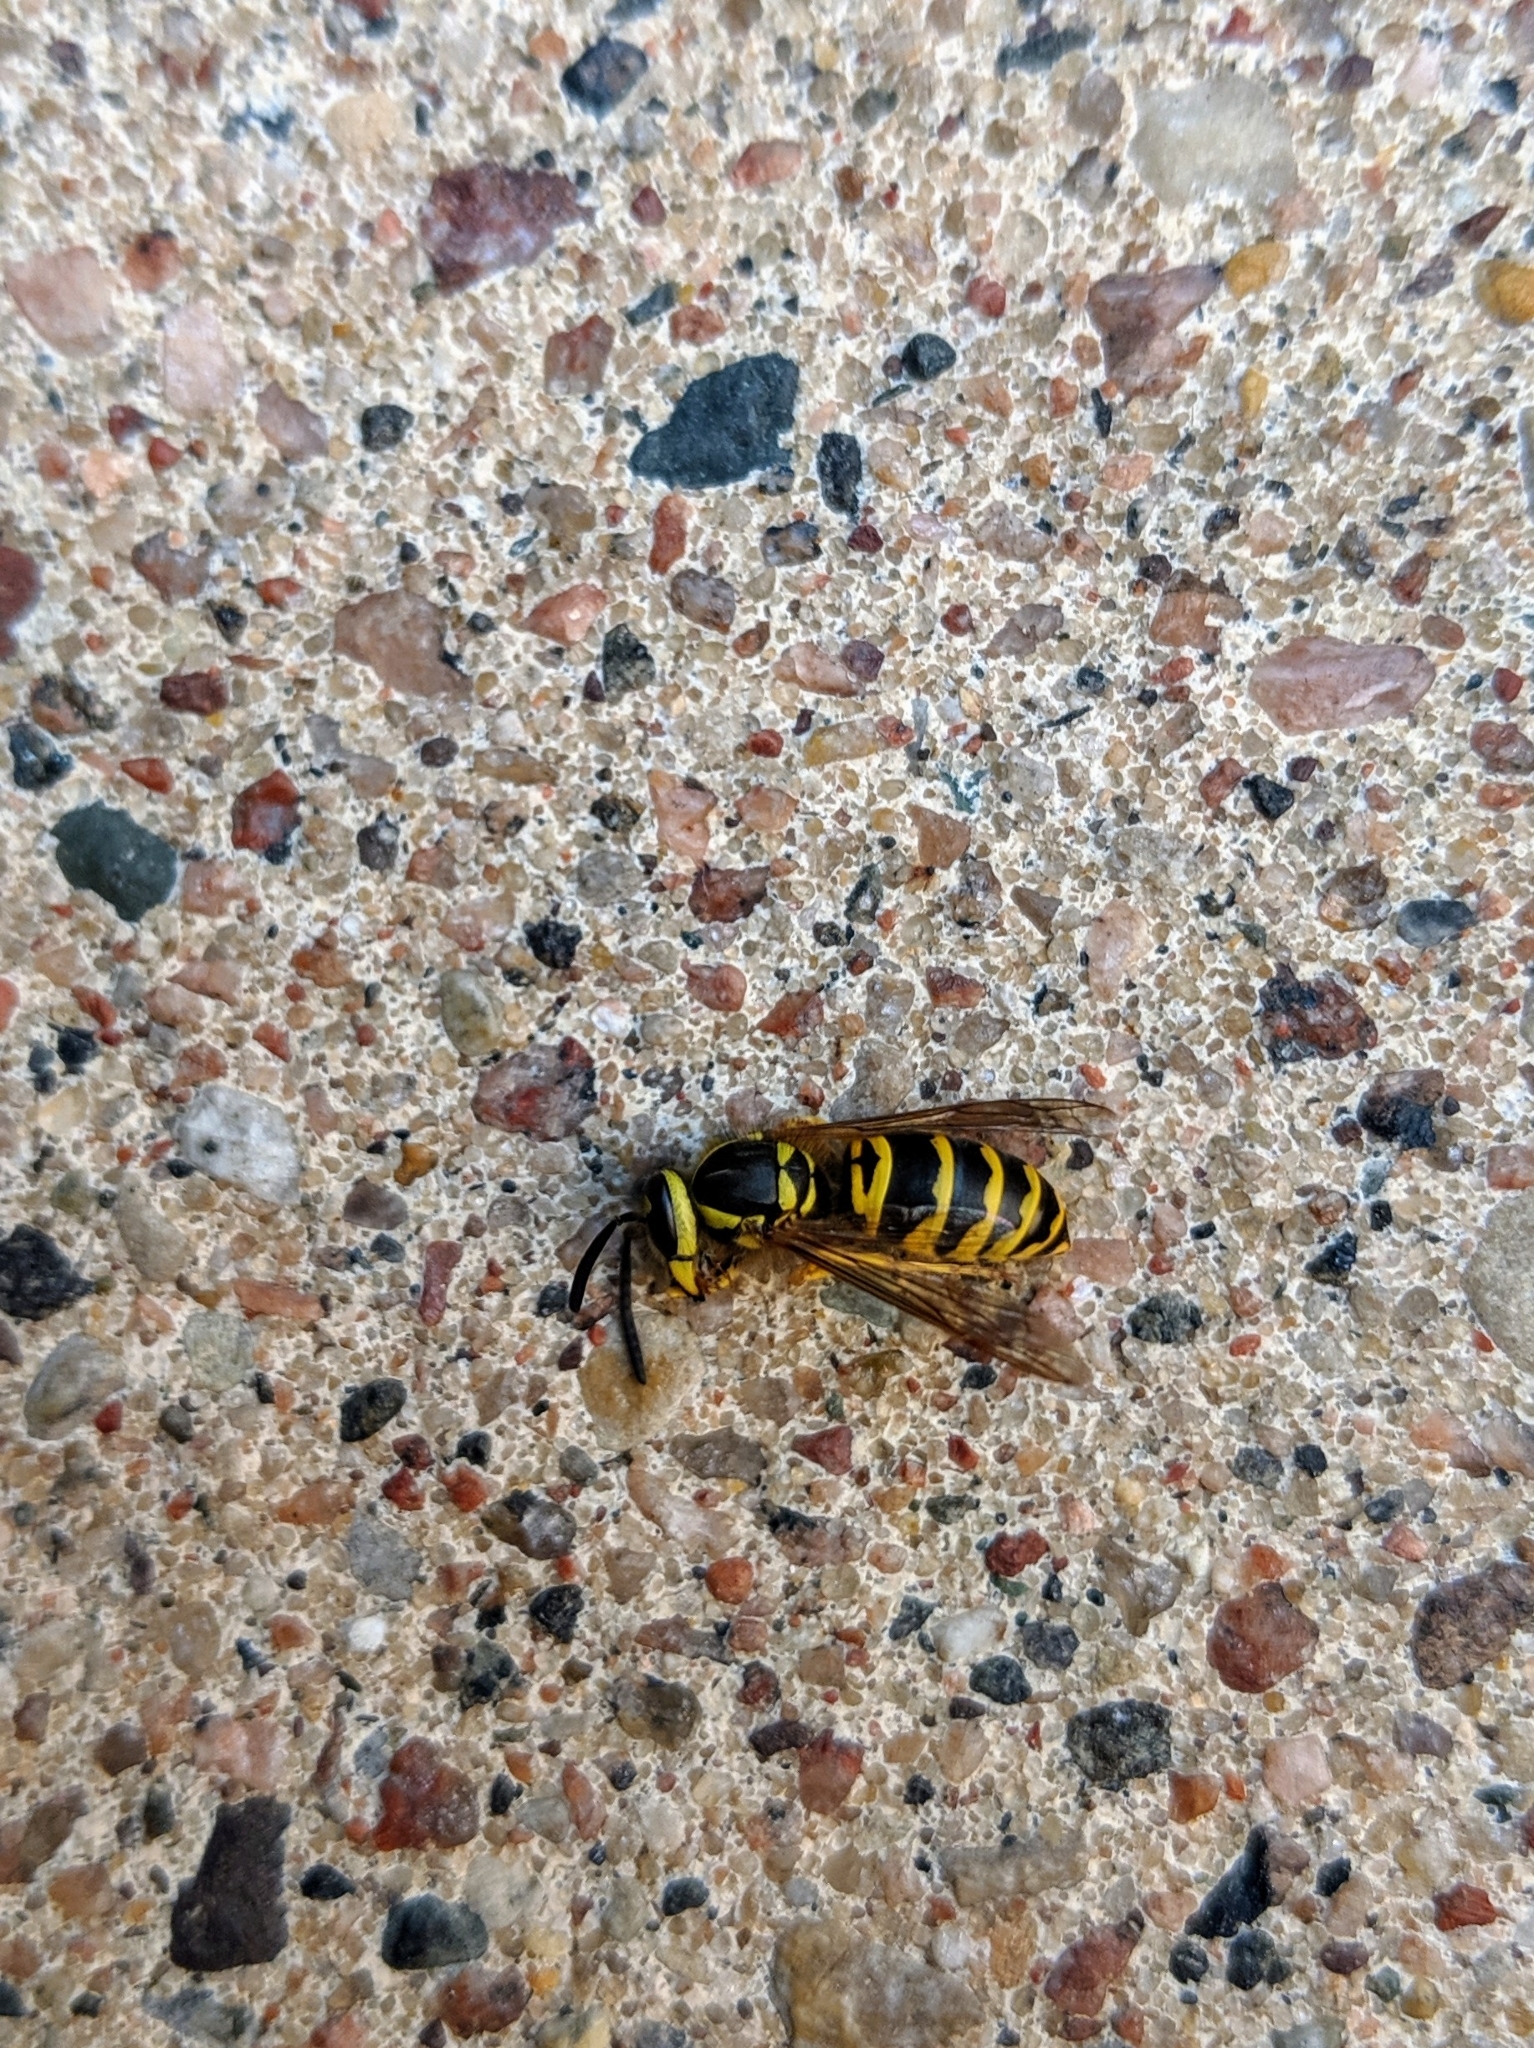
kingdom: Animalia
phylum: Arthropoda
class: Insecta
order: Hymenoptera
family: Vespidae
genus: Vespula
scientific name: Vespula maculifrons
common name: Eastern yellowjacket
